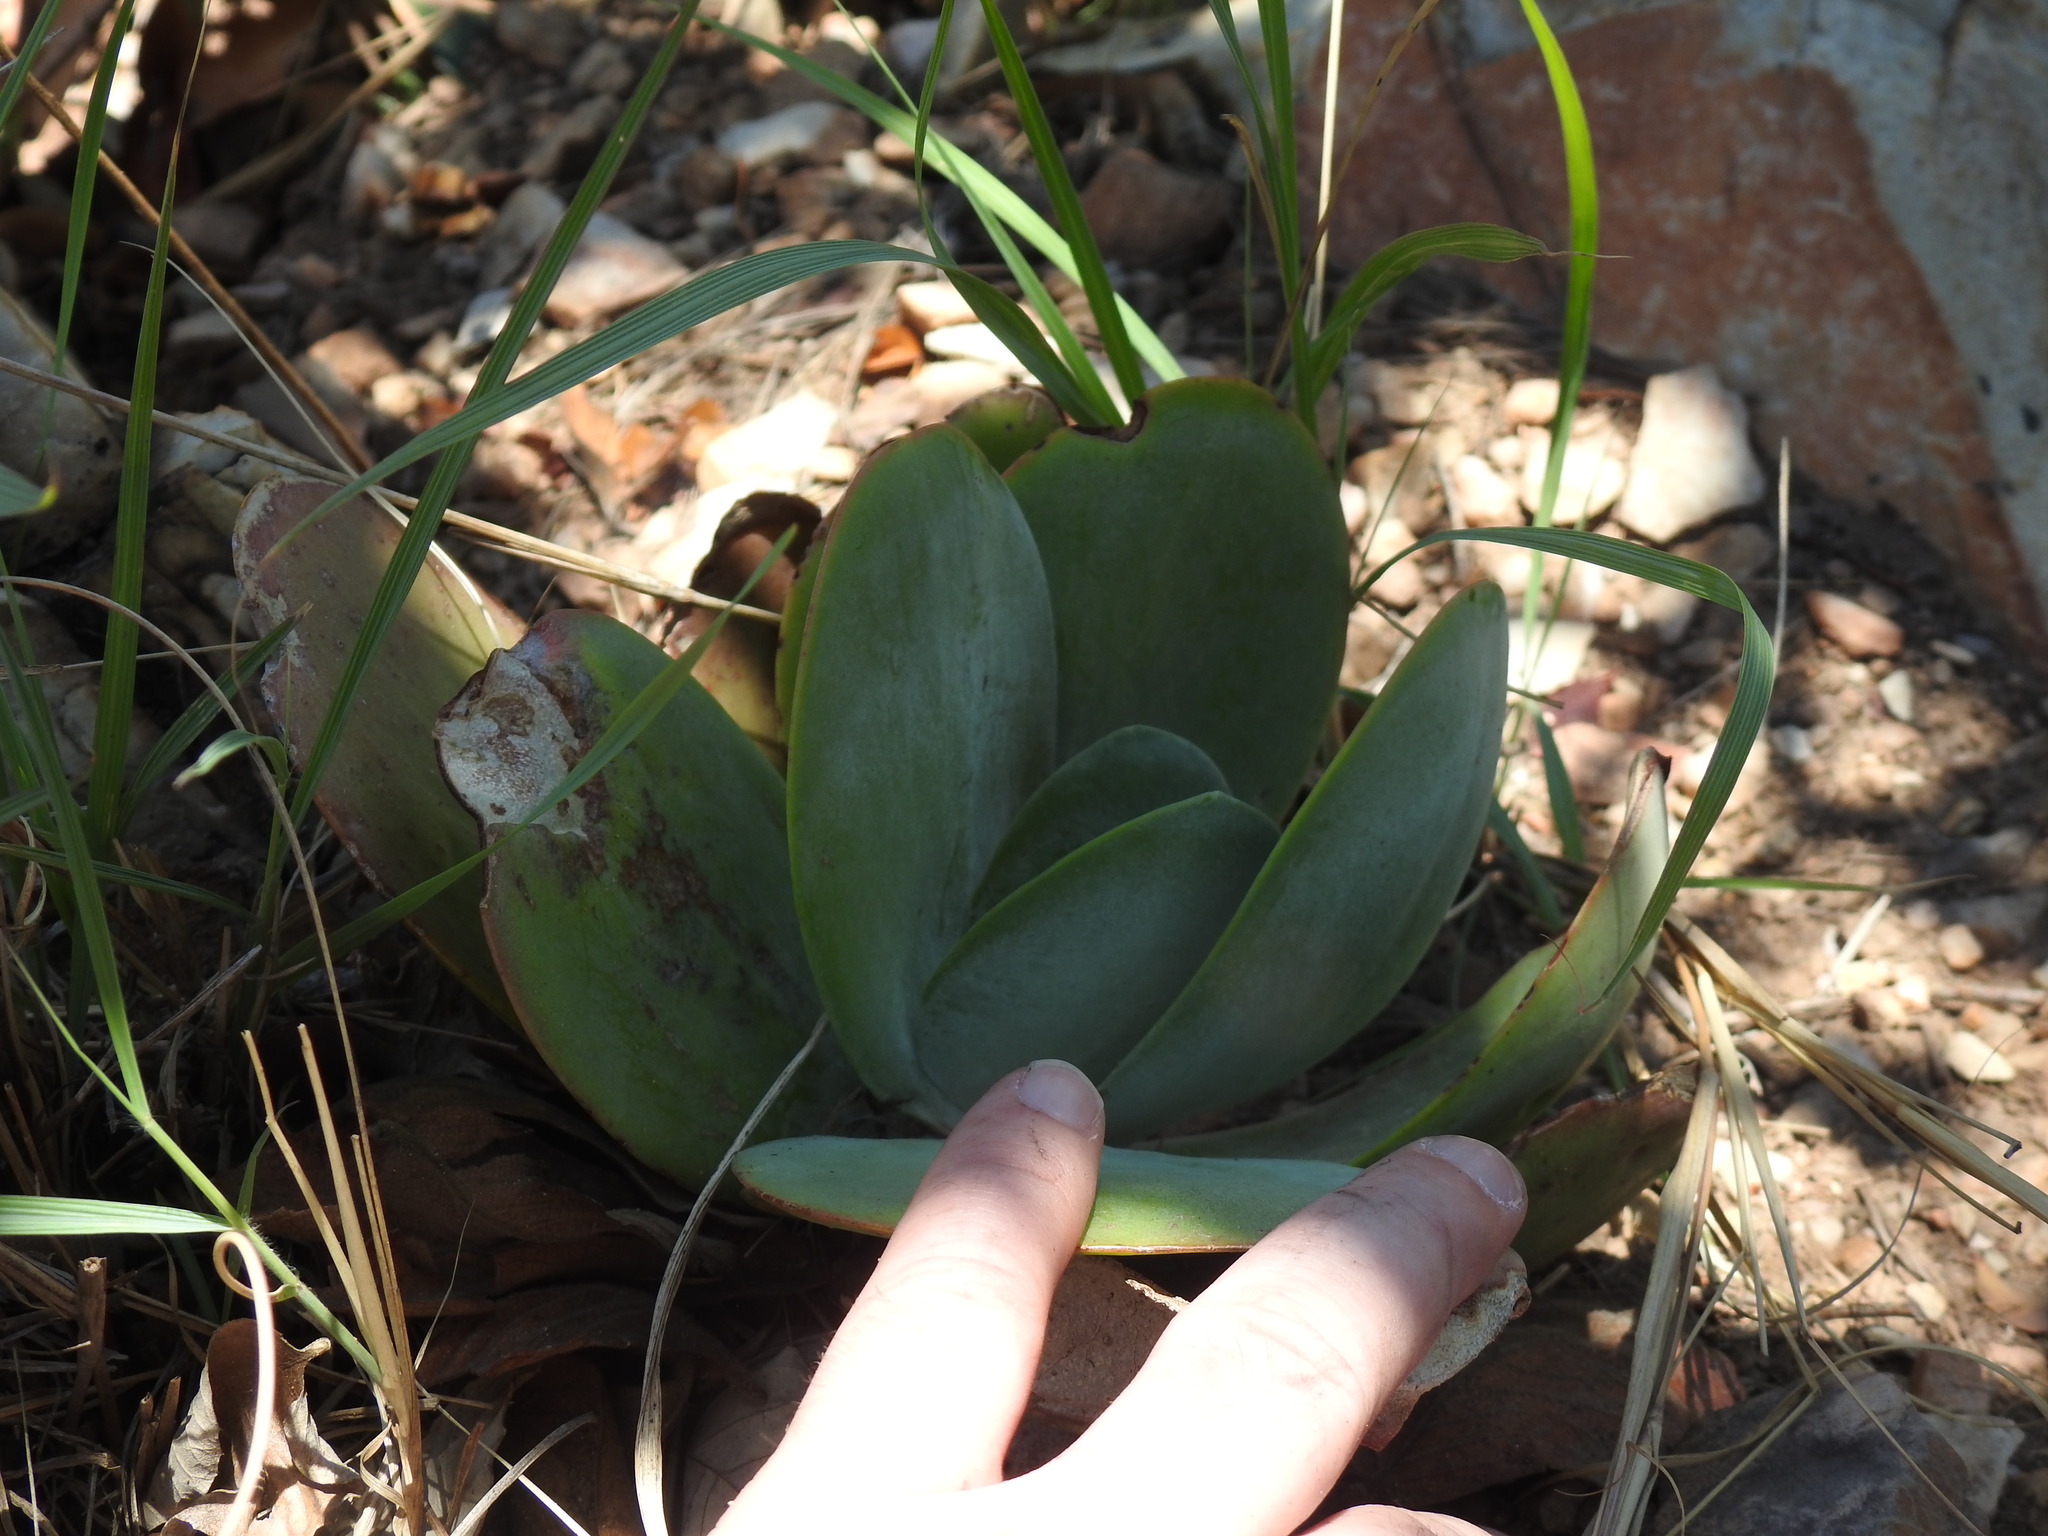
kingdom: Plantae
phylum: Tracheophyta
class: Magnoliopsida
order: Saxifragales
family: Crassulaceae
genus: Kalanchoe
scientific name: Kalanchoe thyrsiflora
